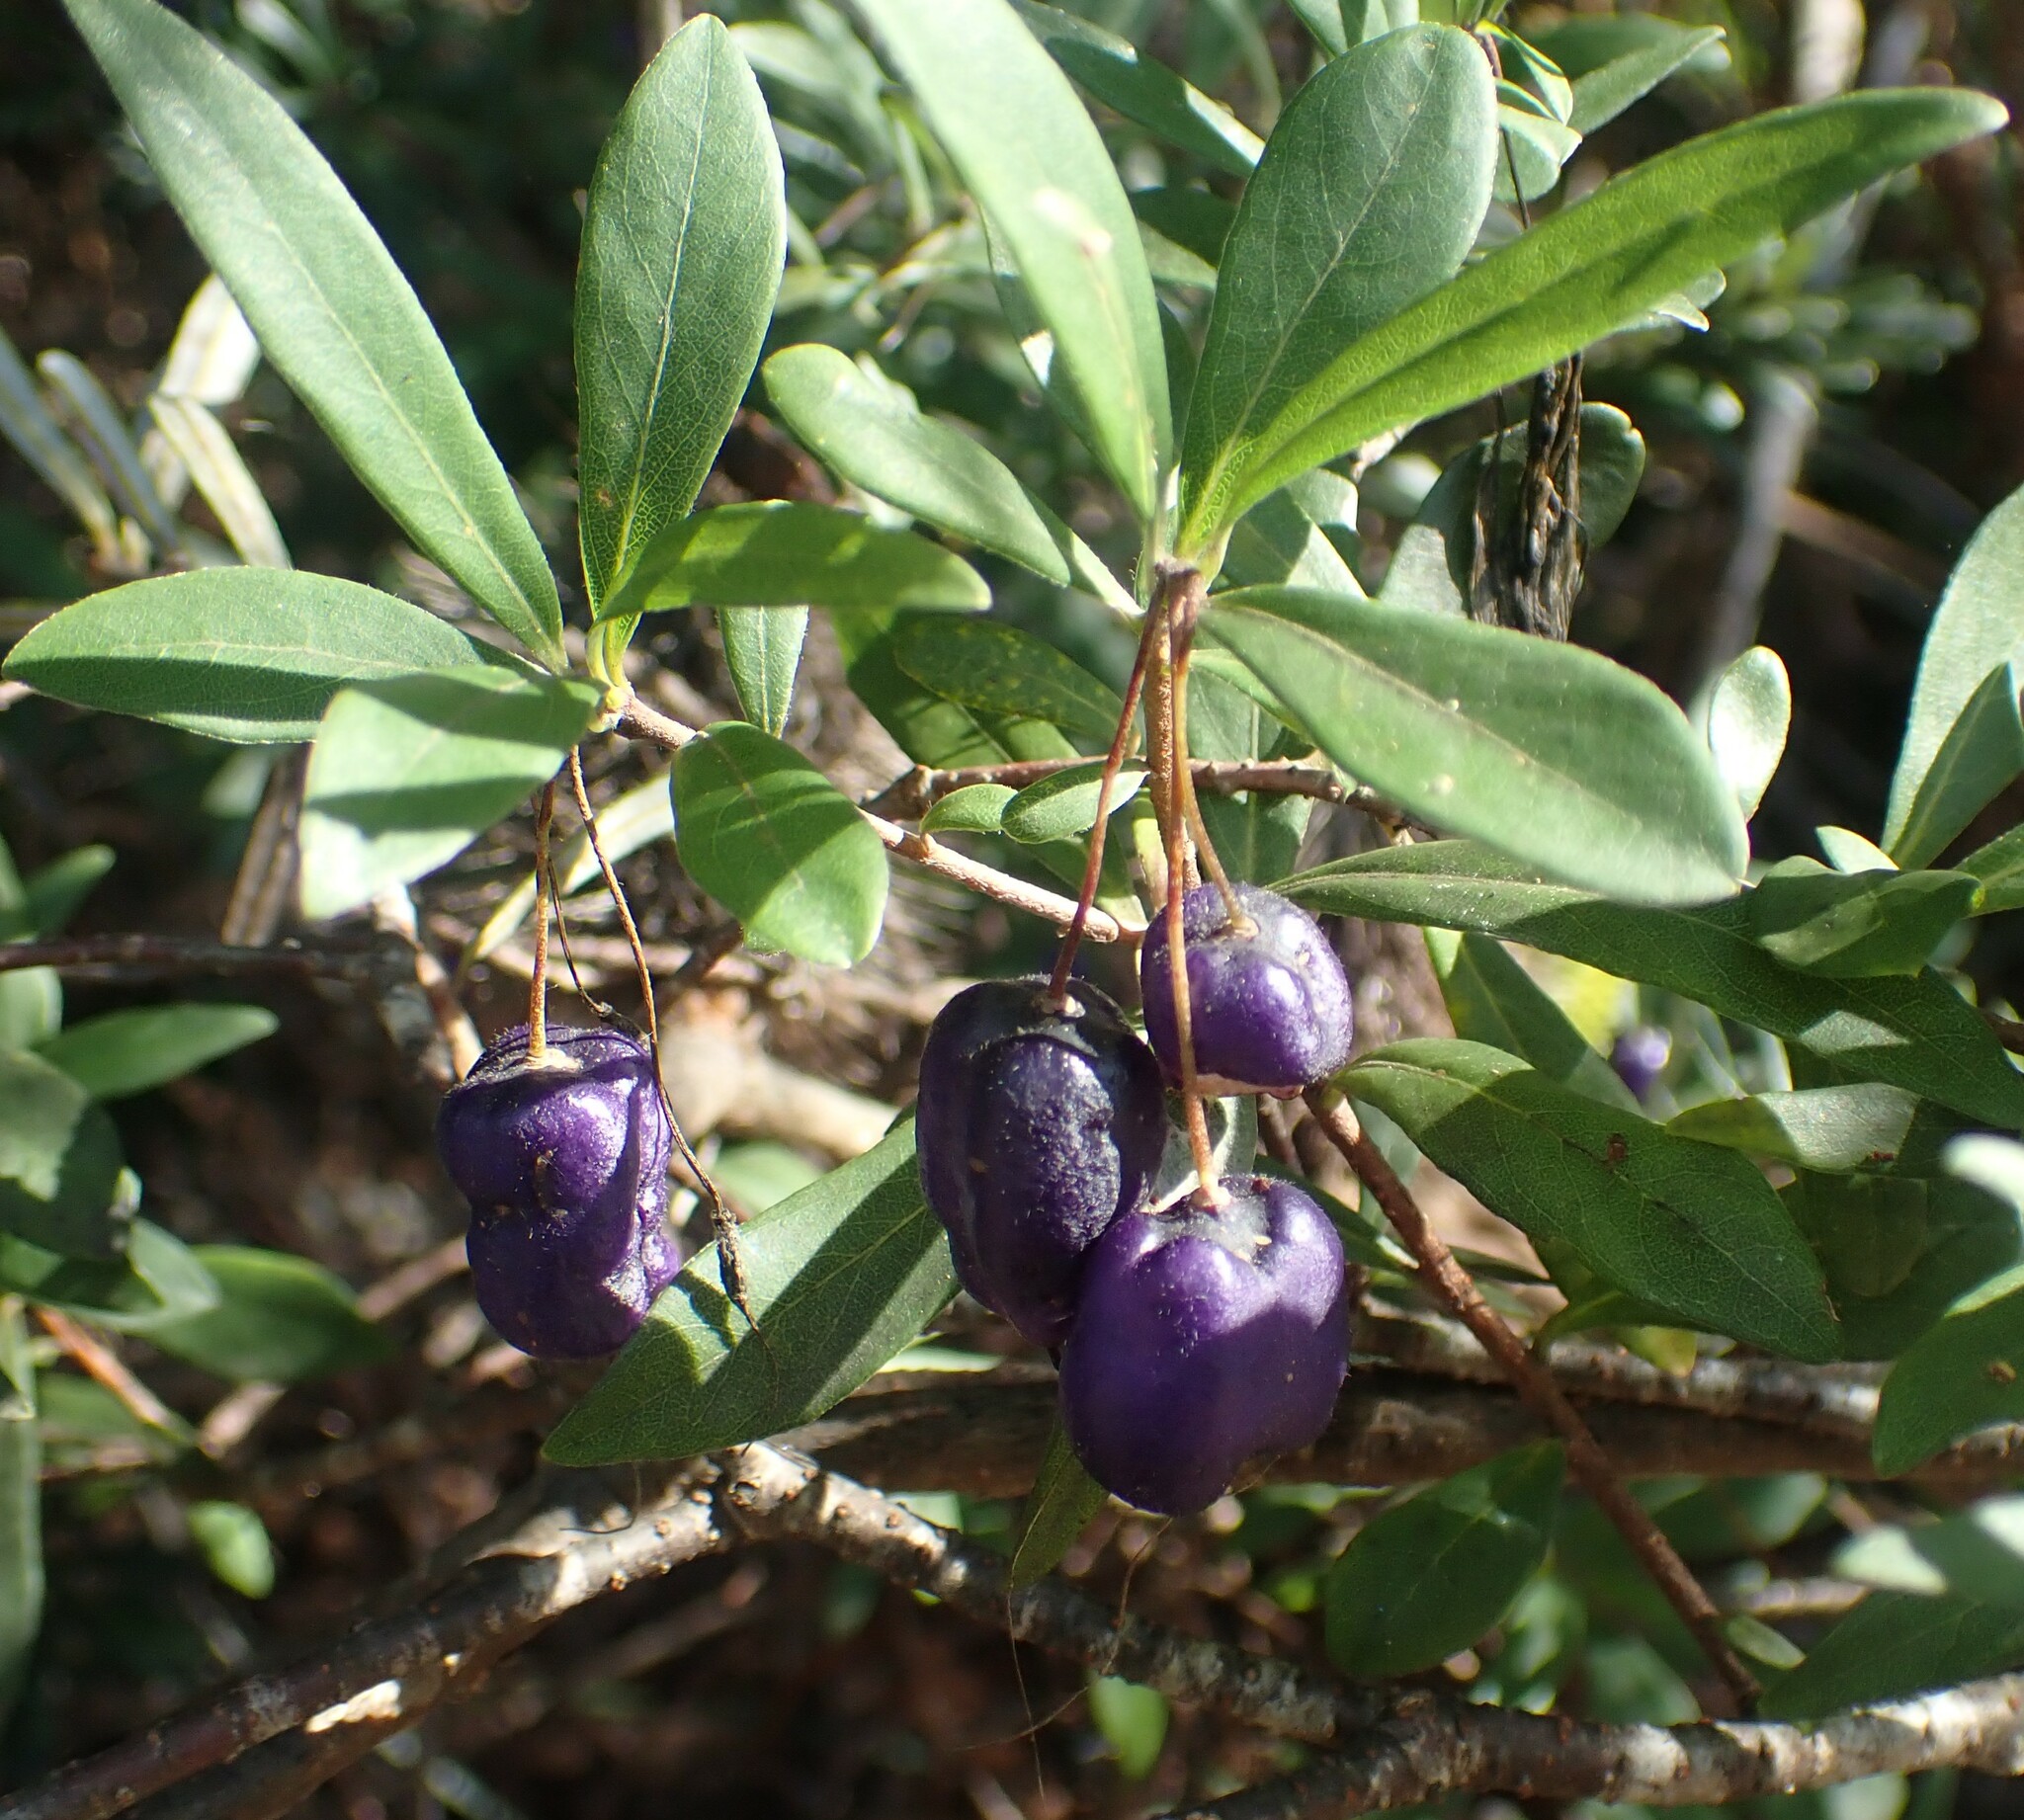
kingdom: Plantae
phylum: Tracheophyta
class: Magnoliopsida
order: Apiales
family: Pittosporaceae
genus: Billardiera
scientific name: Billardiera macrantha
